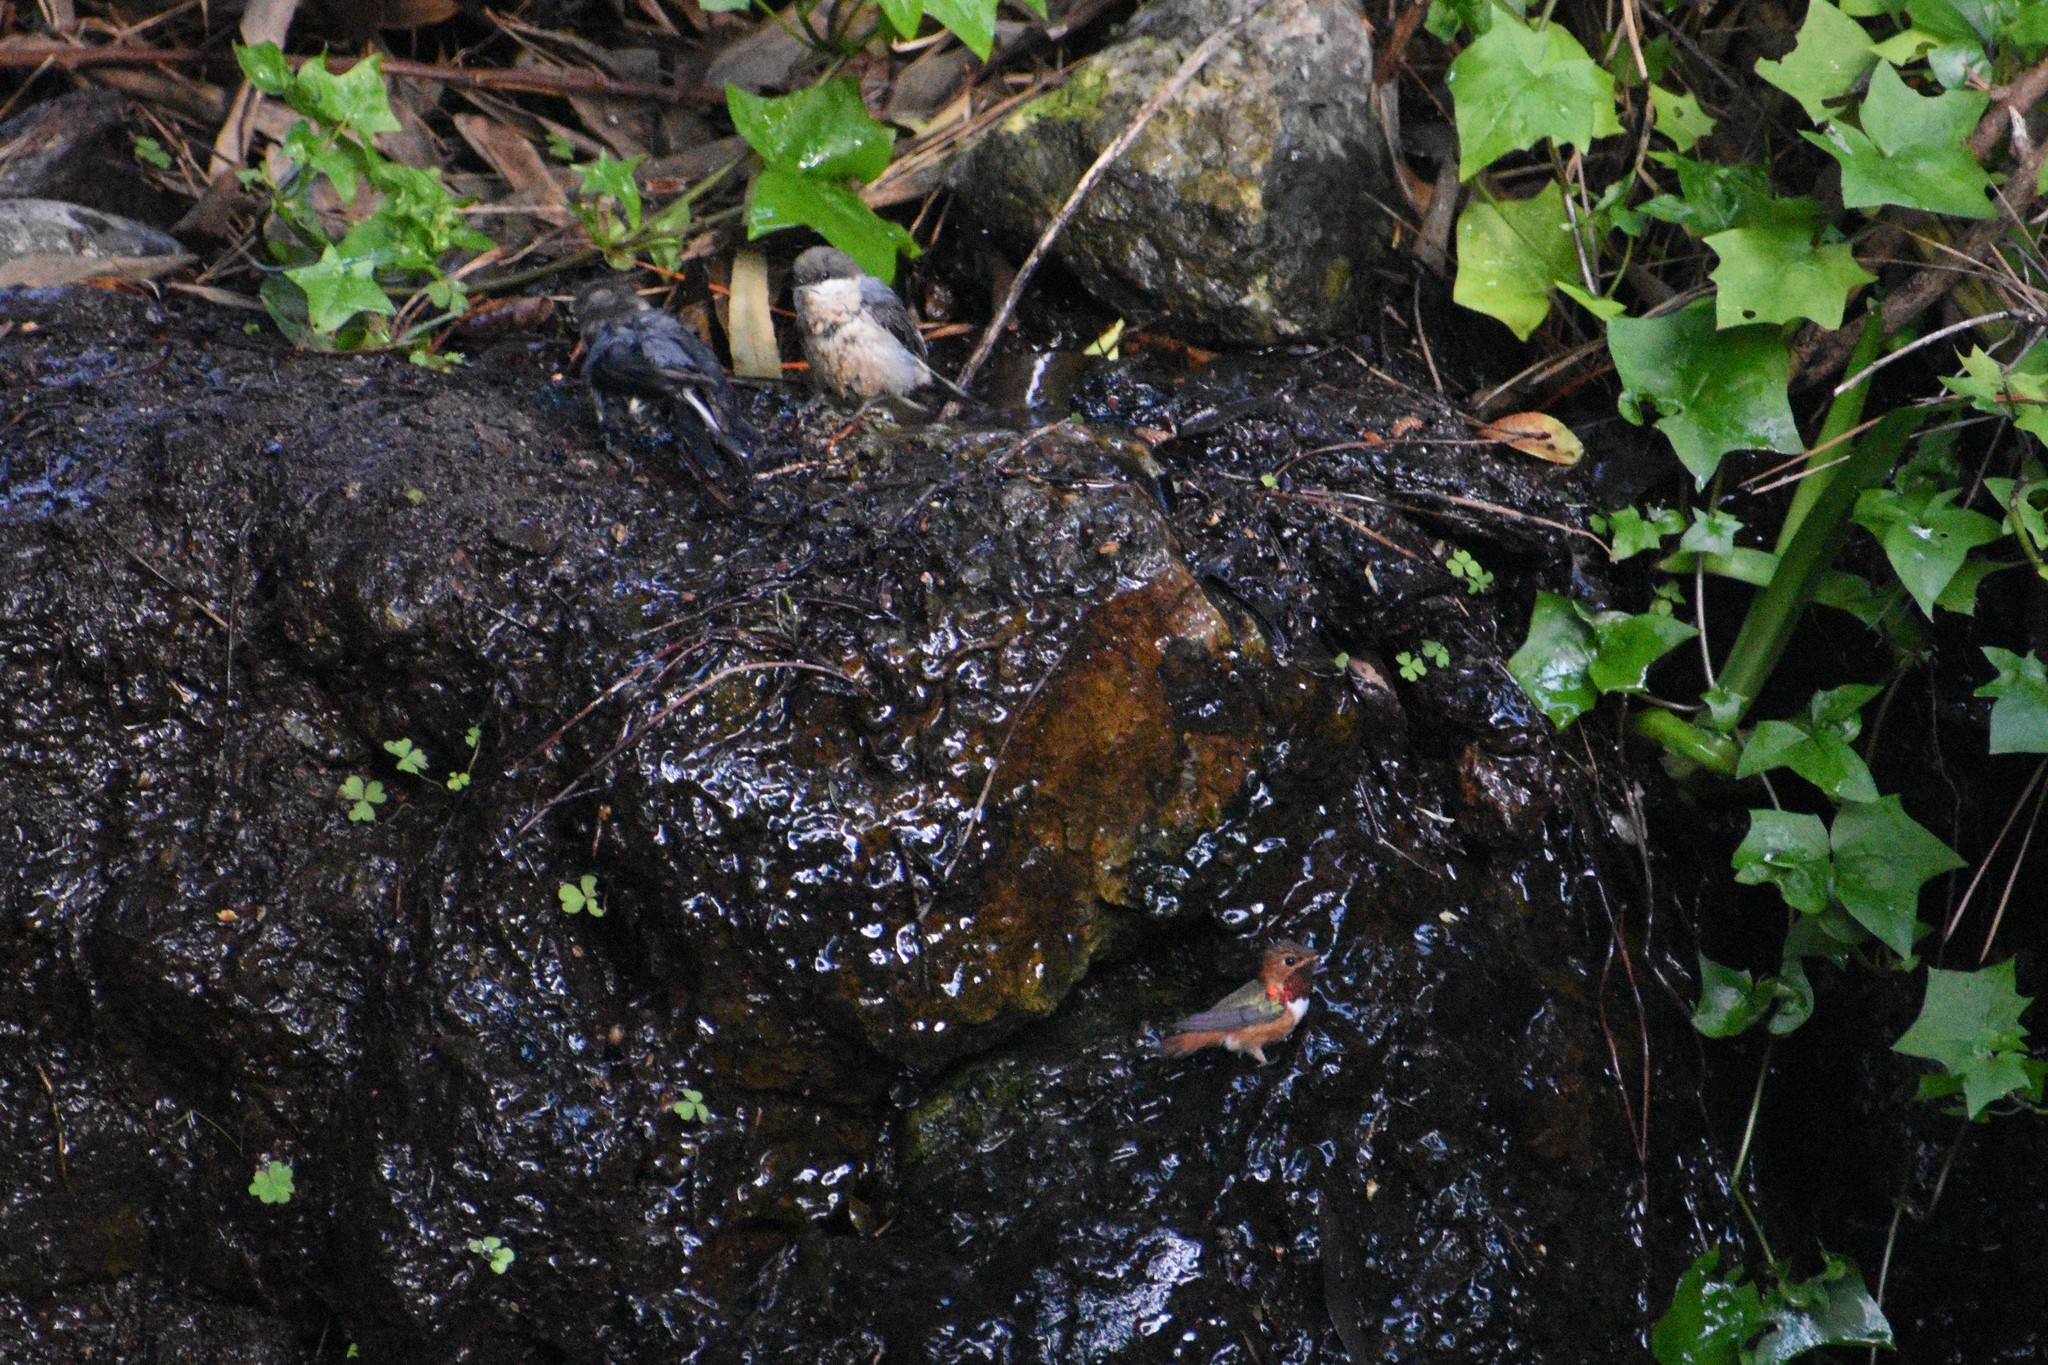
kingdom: Animalia
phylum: Chordata
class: Aves
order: Apodiformes
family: Trochilidae
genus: Selasphorus
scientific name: Selasphorus sasin
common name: Allen's hummingbird
